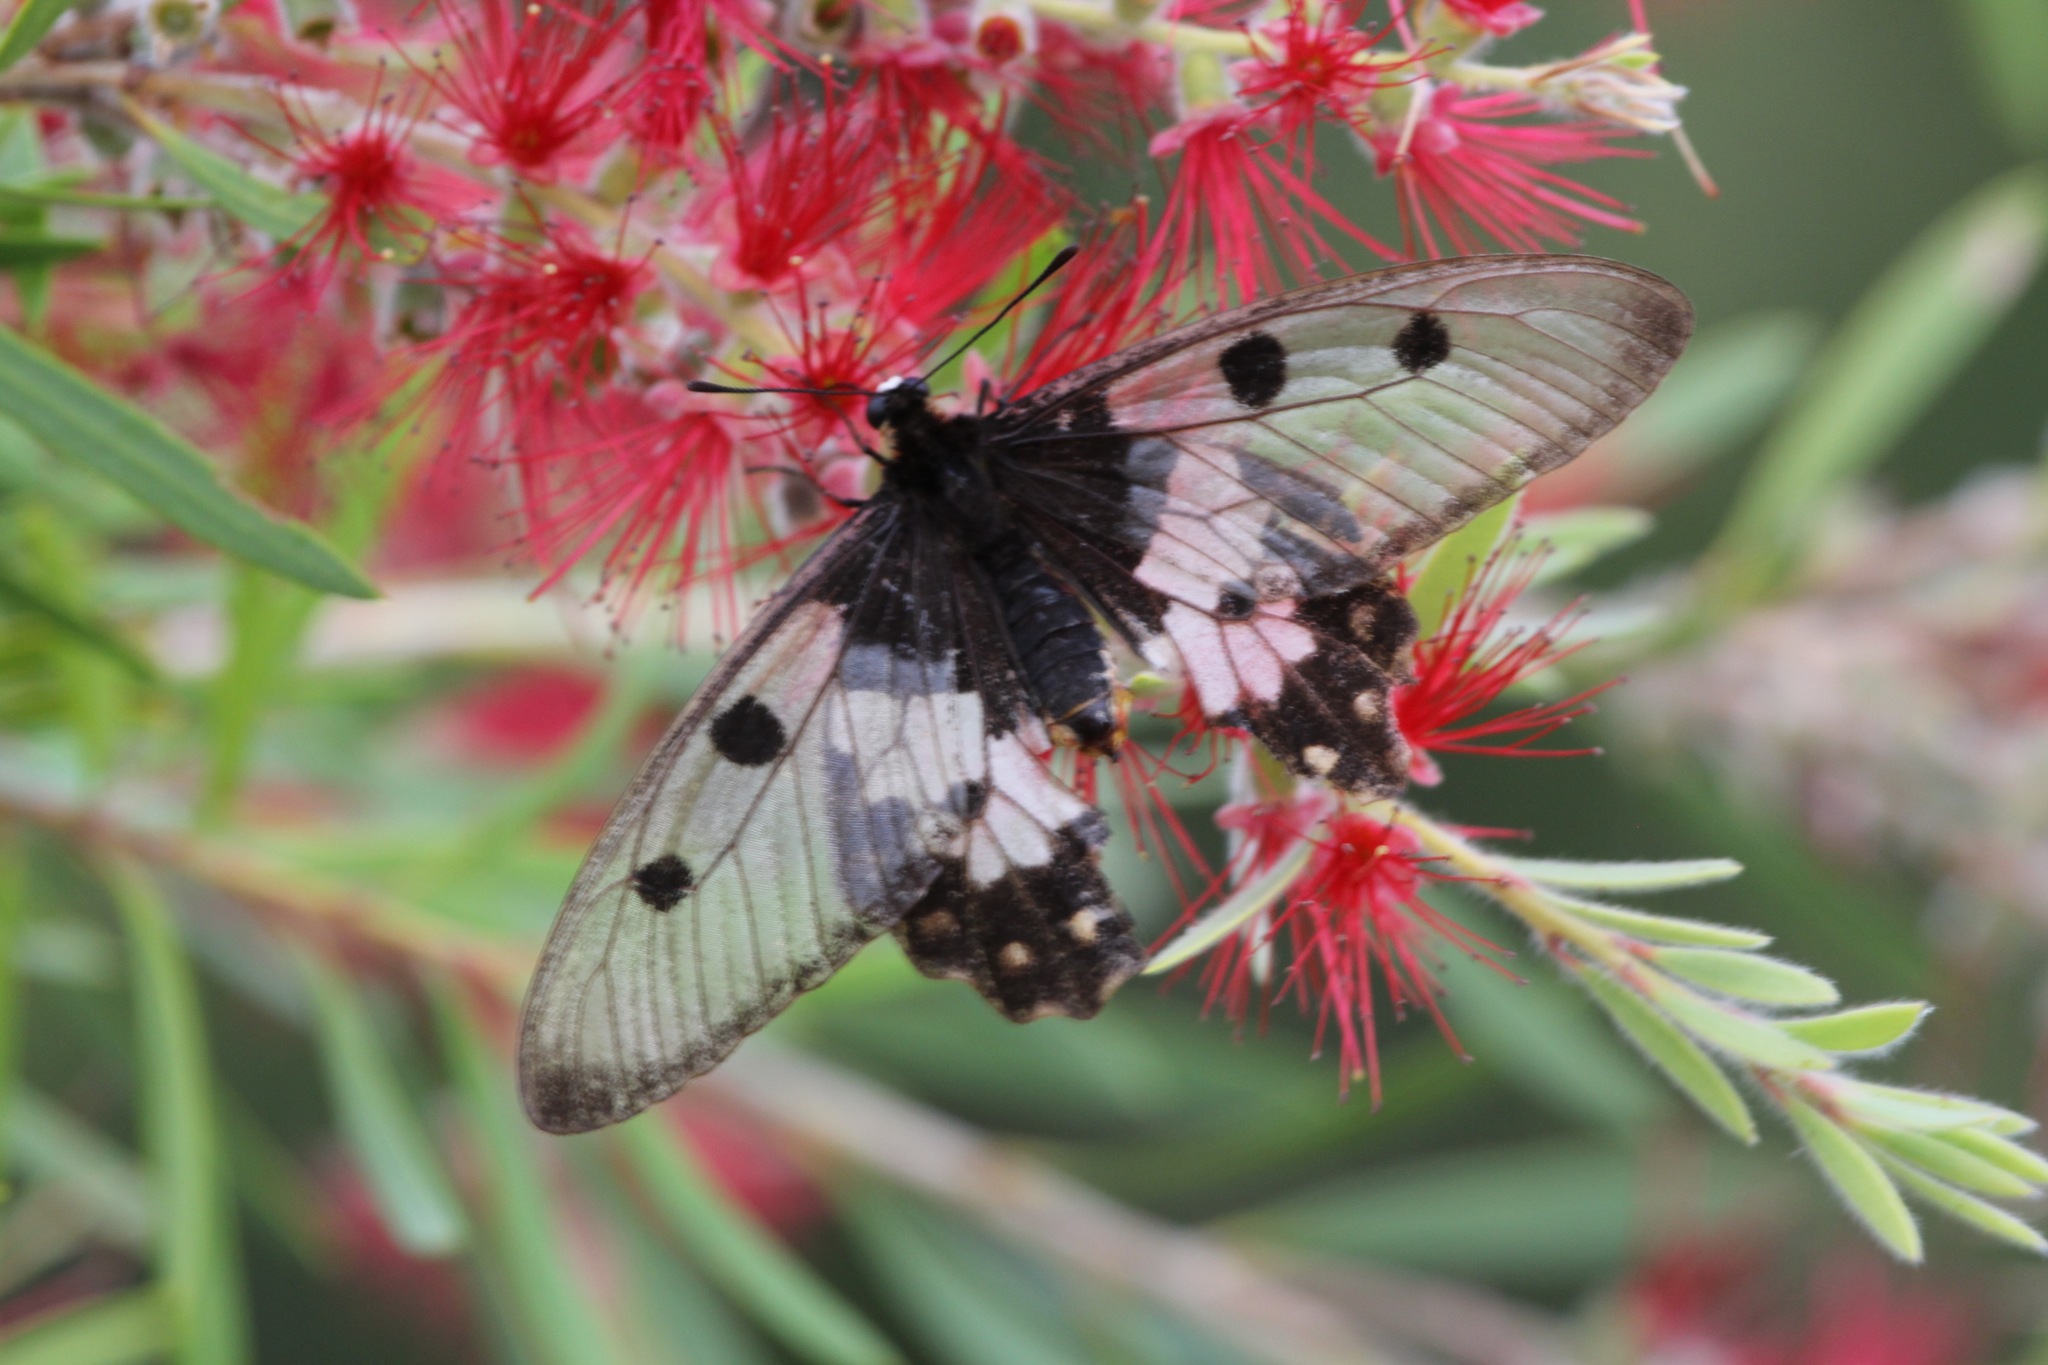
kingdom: Animalia
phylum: Arthropoda
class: Insecta
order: Lepidoptera
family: Papilionidae
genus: Cressida
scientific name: Cressida cressida
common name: Big greasy
